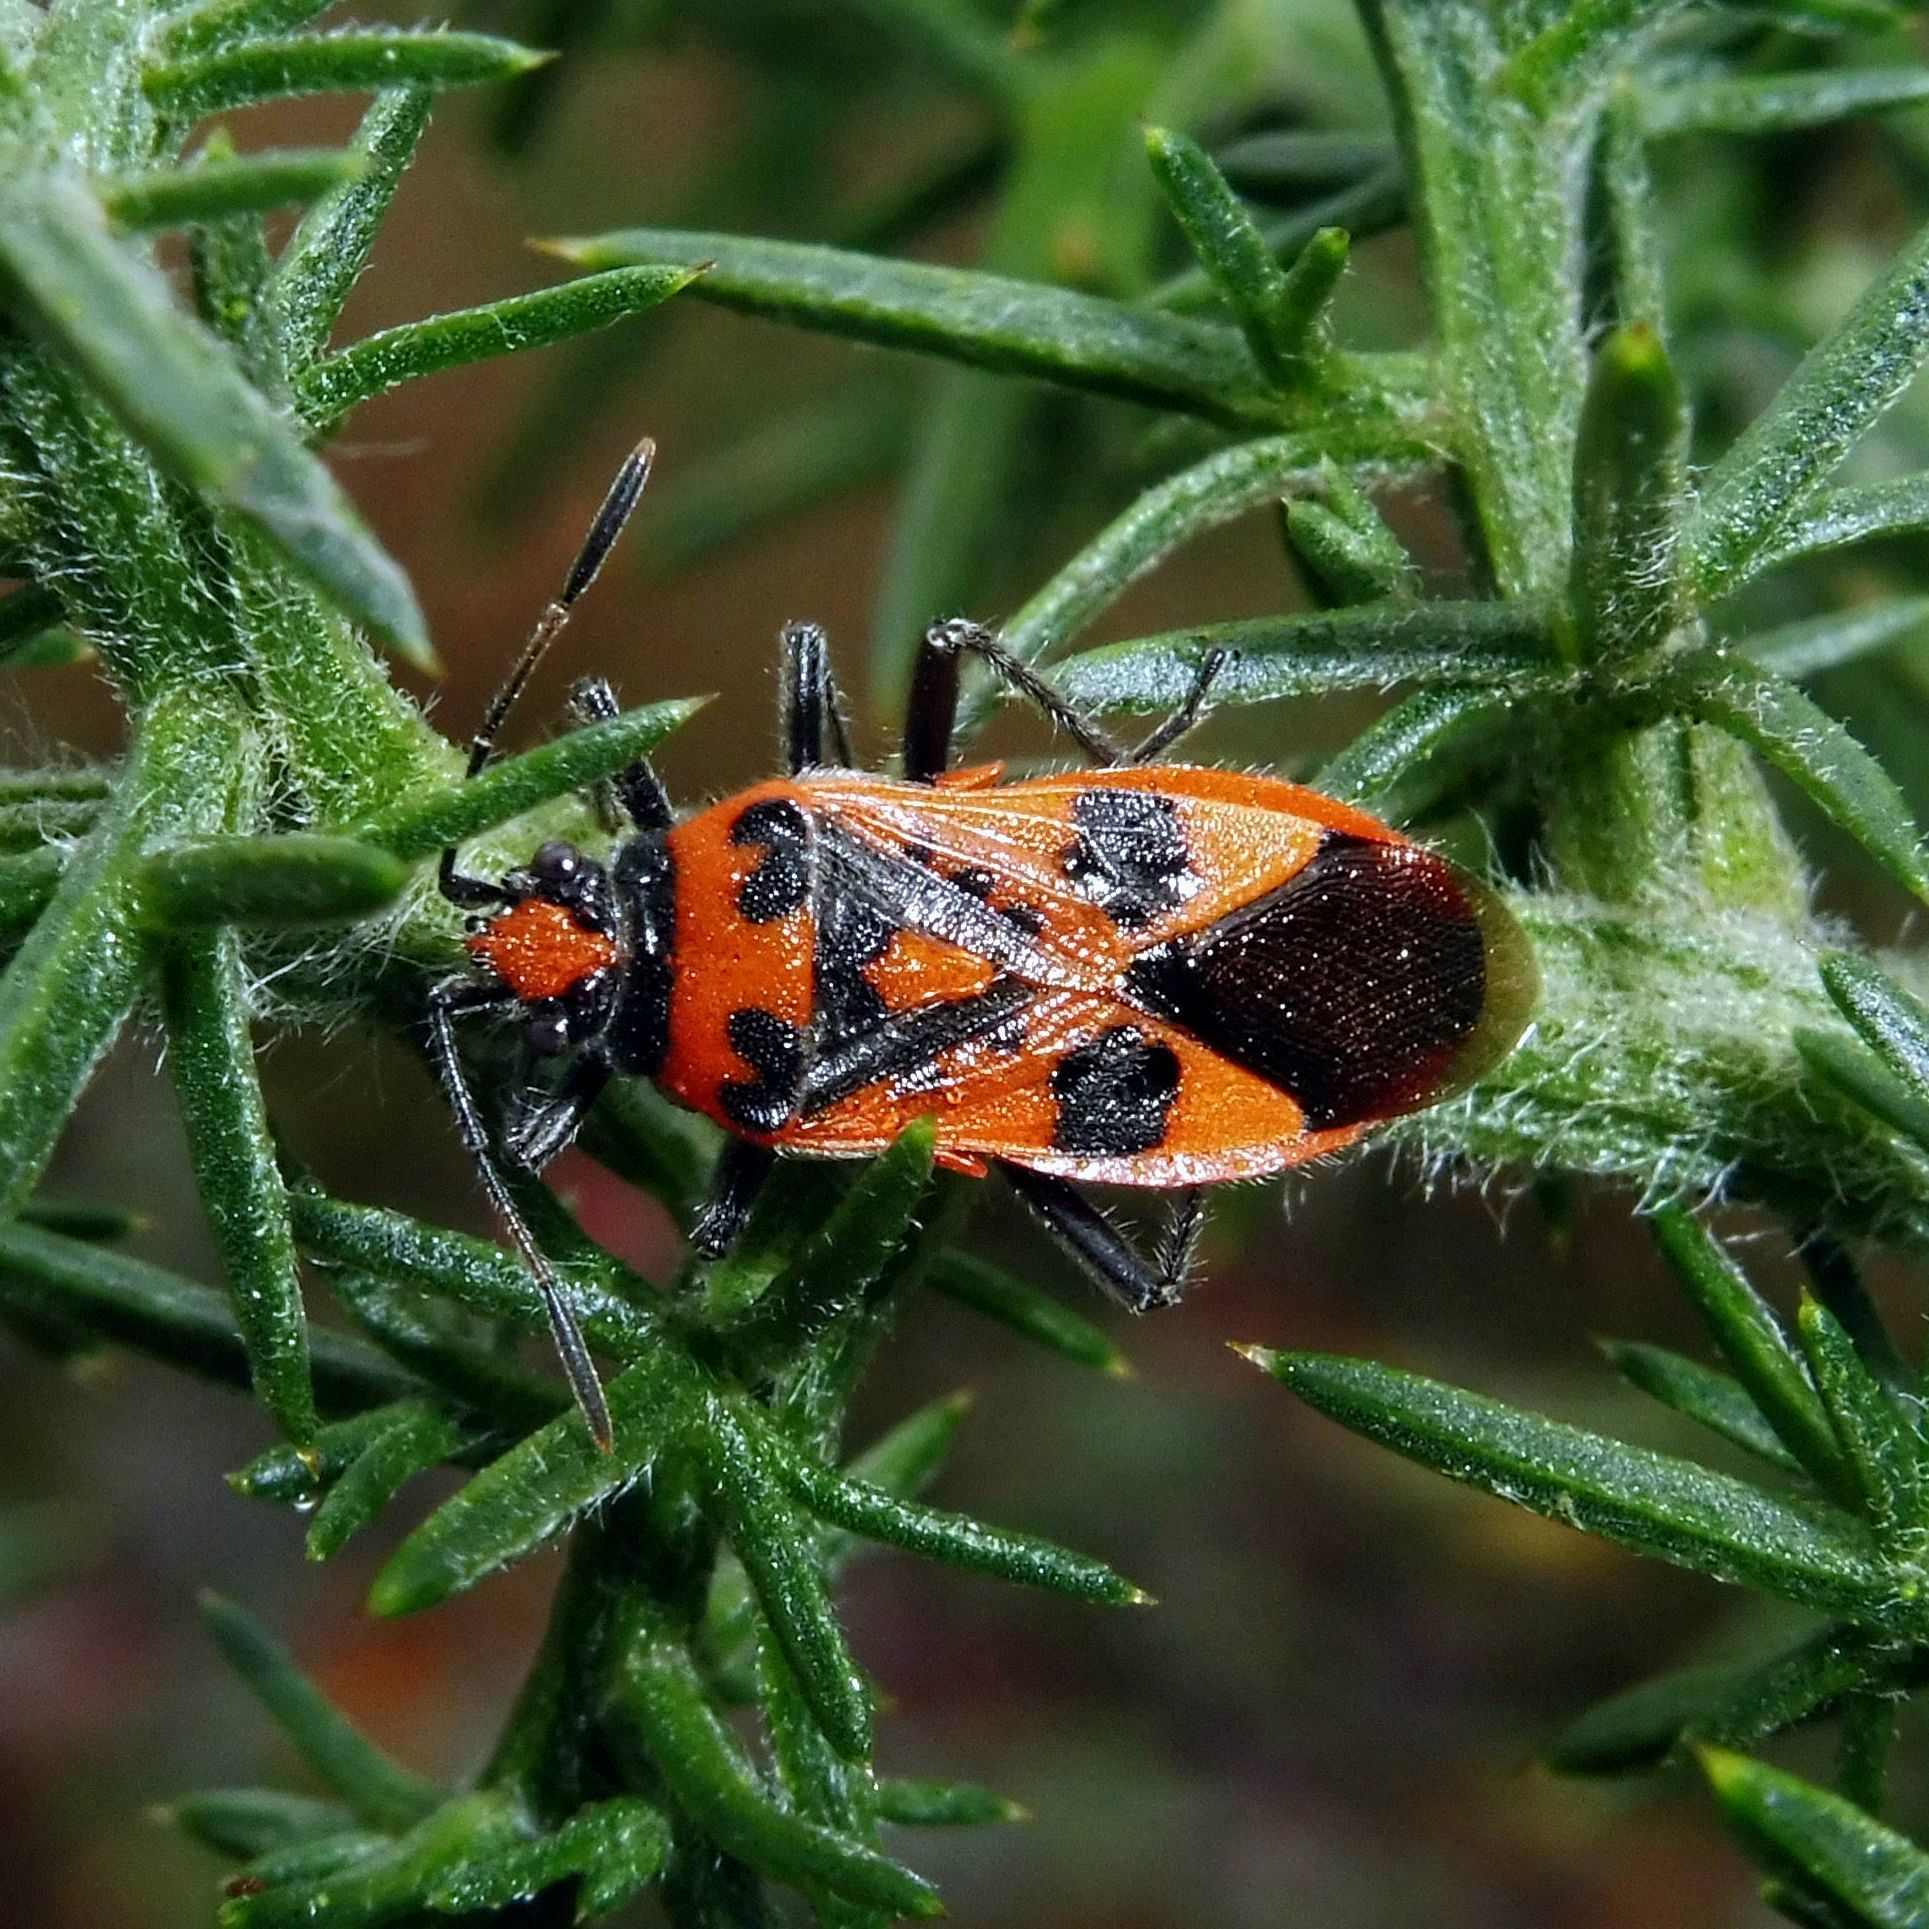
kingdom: Animalia
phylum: Arthropoda
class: Insecta
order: Hemiptera
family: Rhopalidae
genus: Corizus
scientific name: Corizus hyoscyami
